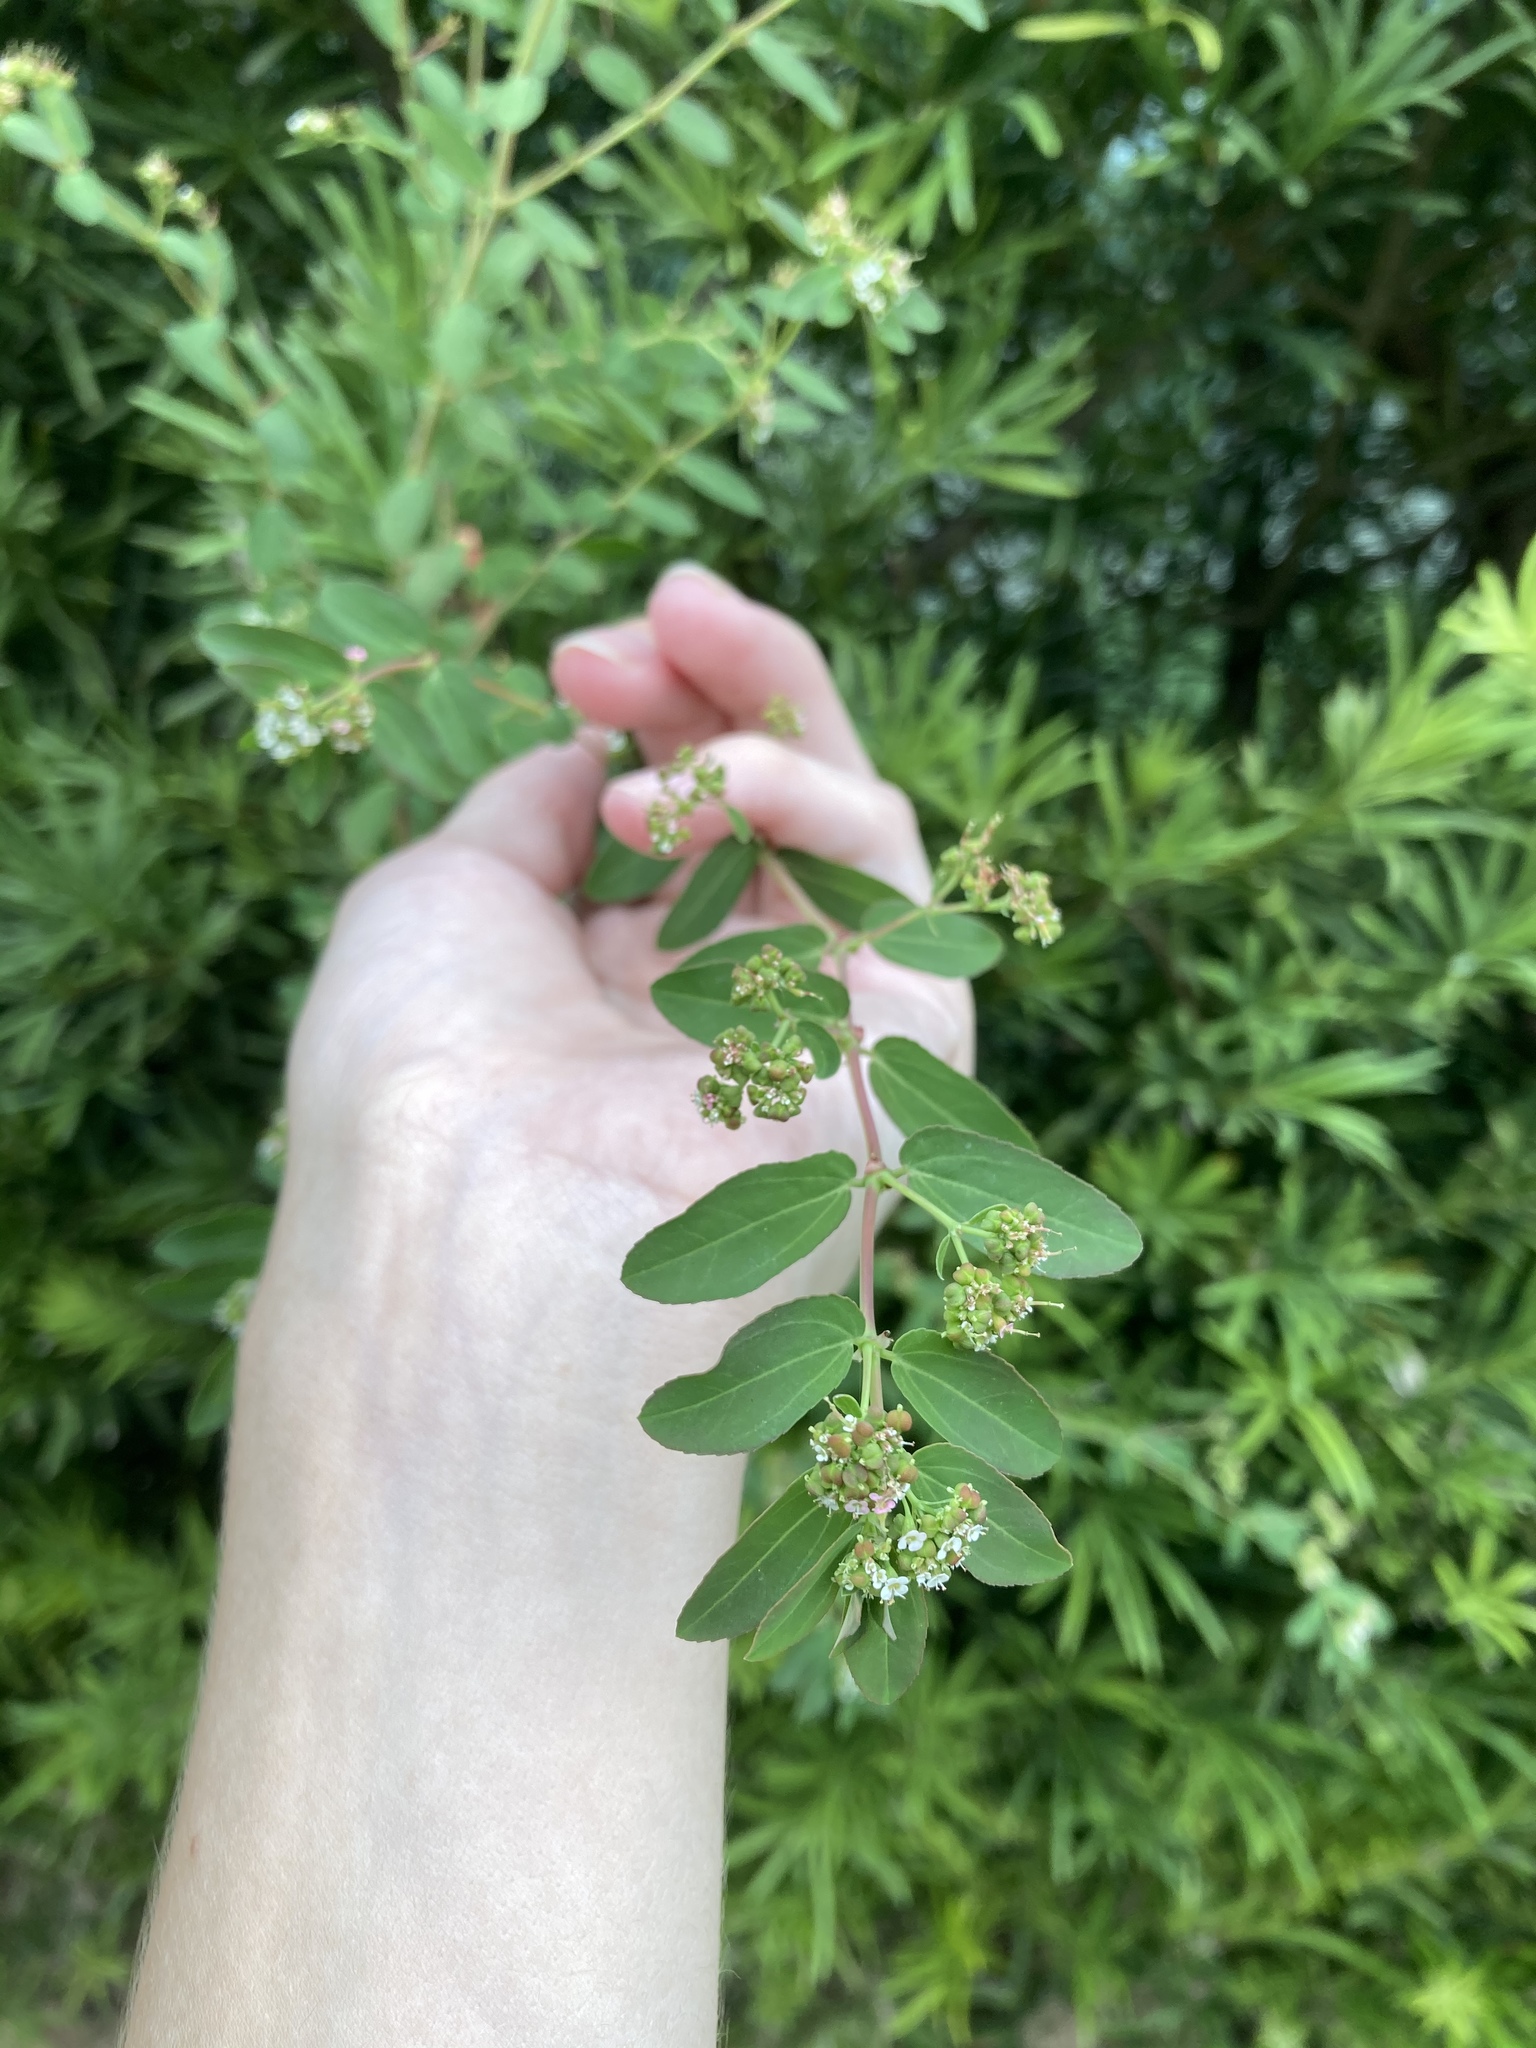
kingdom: Plantae
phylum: Tracheophyta
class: Magnoliopsida
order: Malpighiales
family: Euphorbiaceae
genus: Euphorbia
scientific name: Euphorbia hypericifolia
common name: Graceful sandmat
